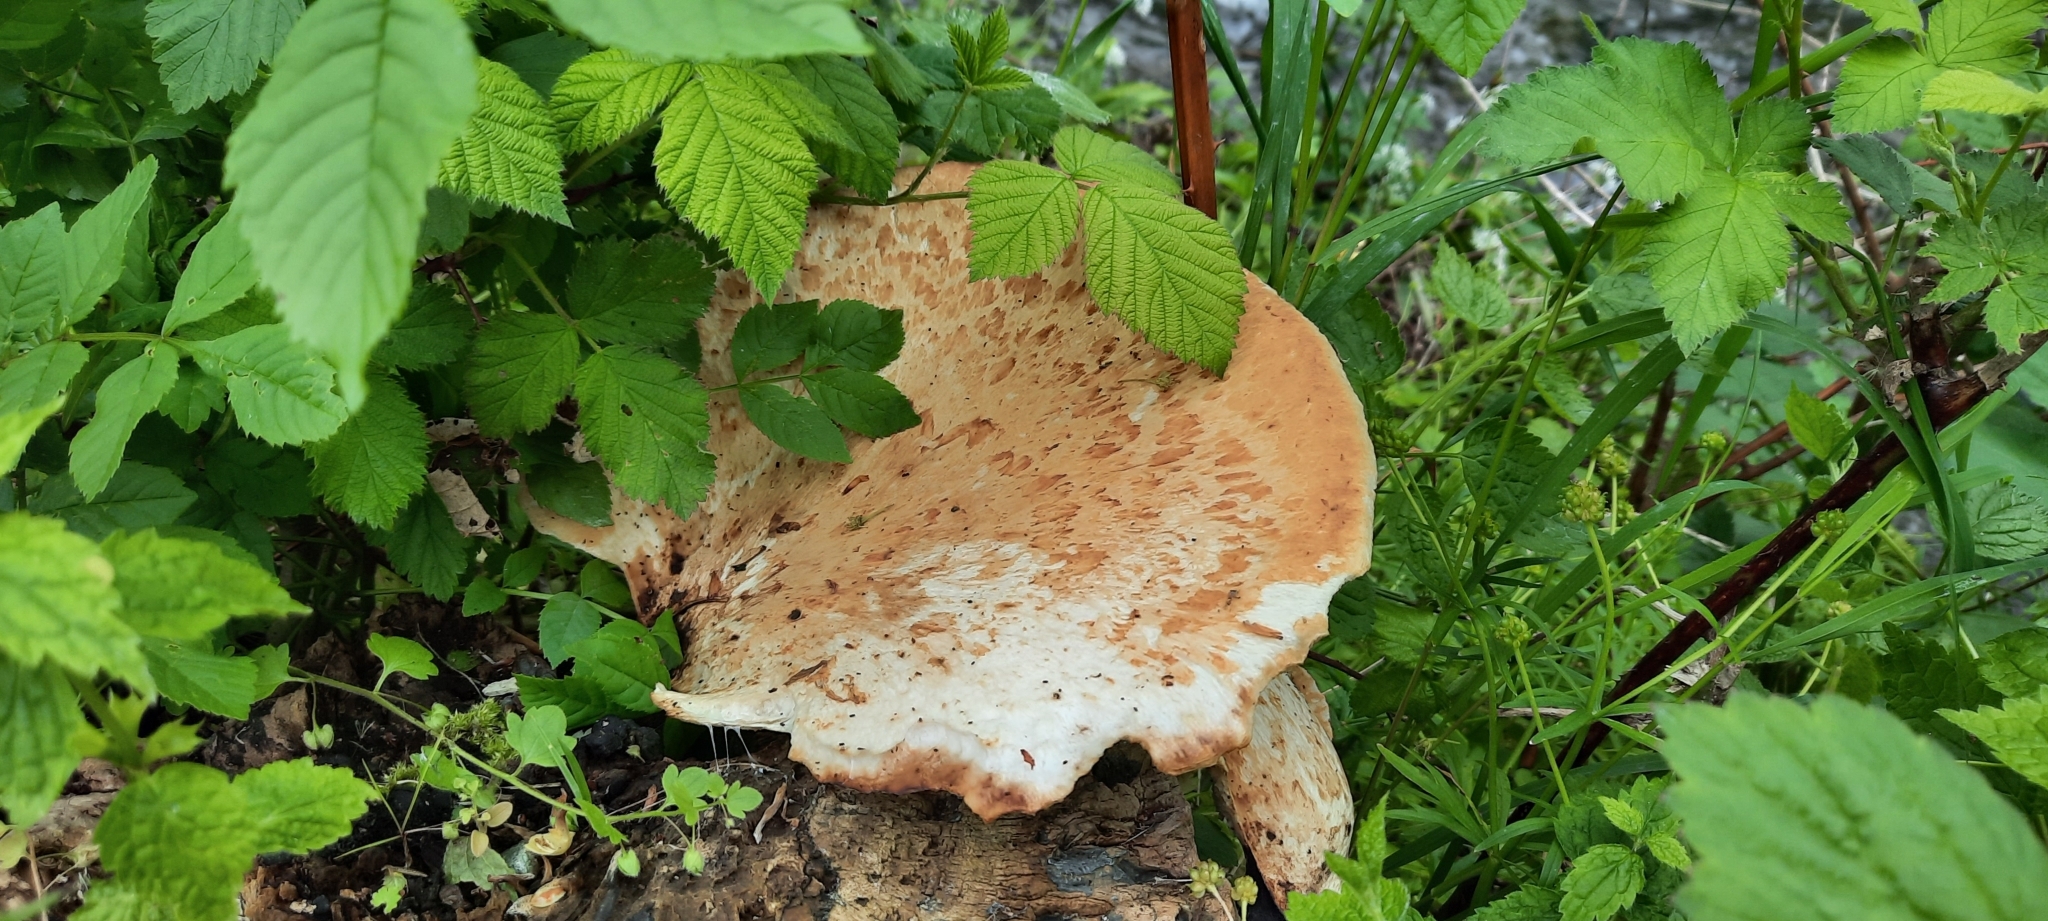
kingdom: Fungi
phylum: Basidiomycota
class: Agaricomycetes
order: Polyporales
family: Polyporaceae
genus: Cerioporus
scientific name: Cerioporus squamosus
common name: Dryad's saddle
